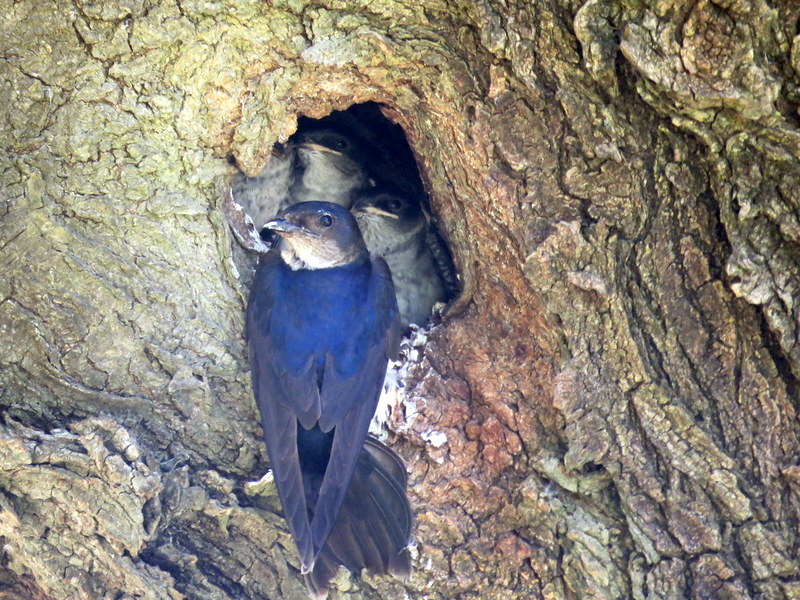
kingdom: Animalia
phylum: Chordata
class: Aves
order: Passeriformes
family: Hirundinidae
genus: Progne
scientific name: Progne chalybea
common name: Grey-breasted martin
